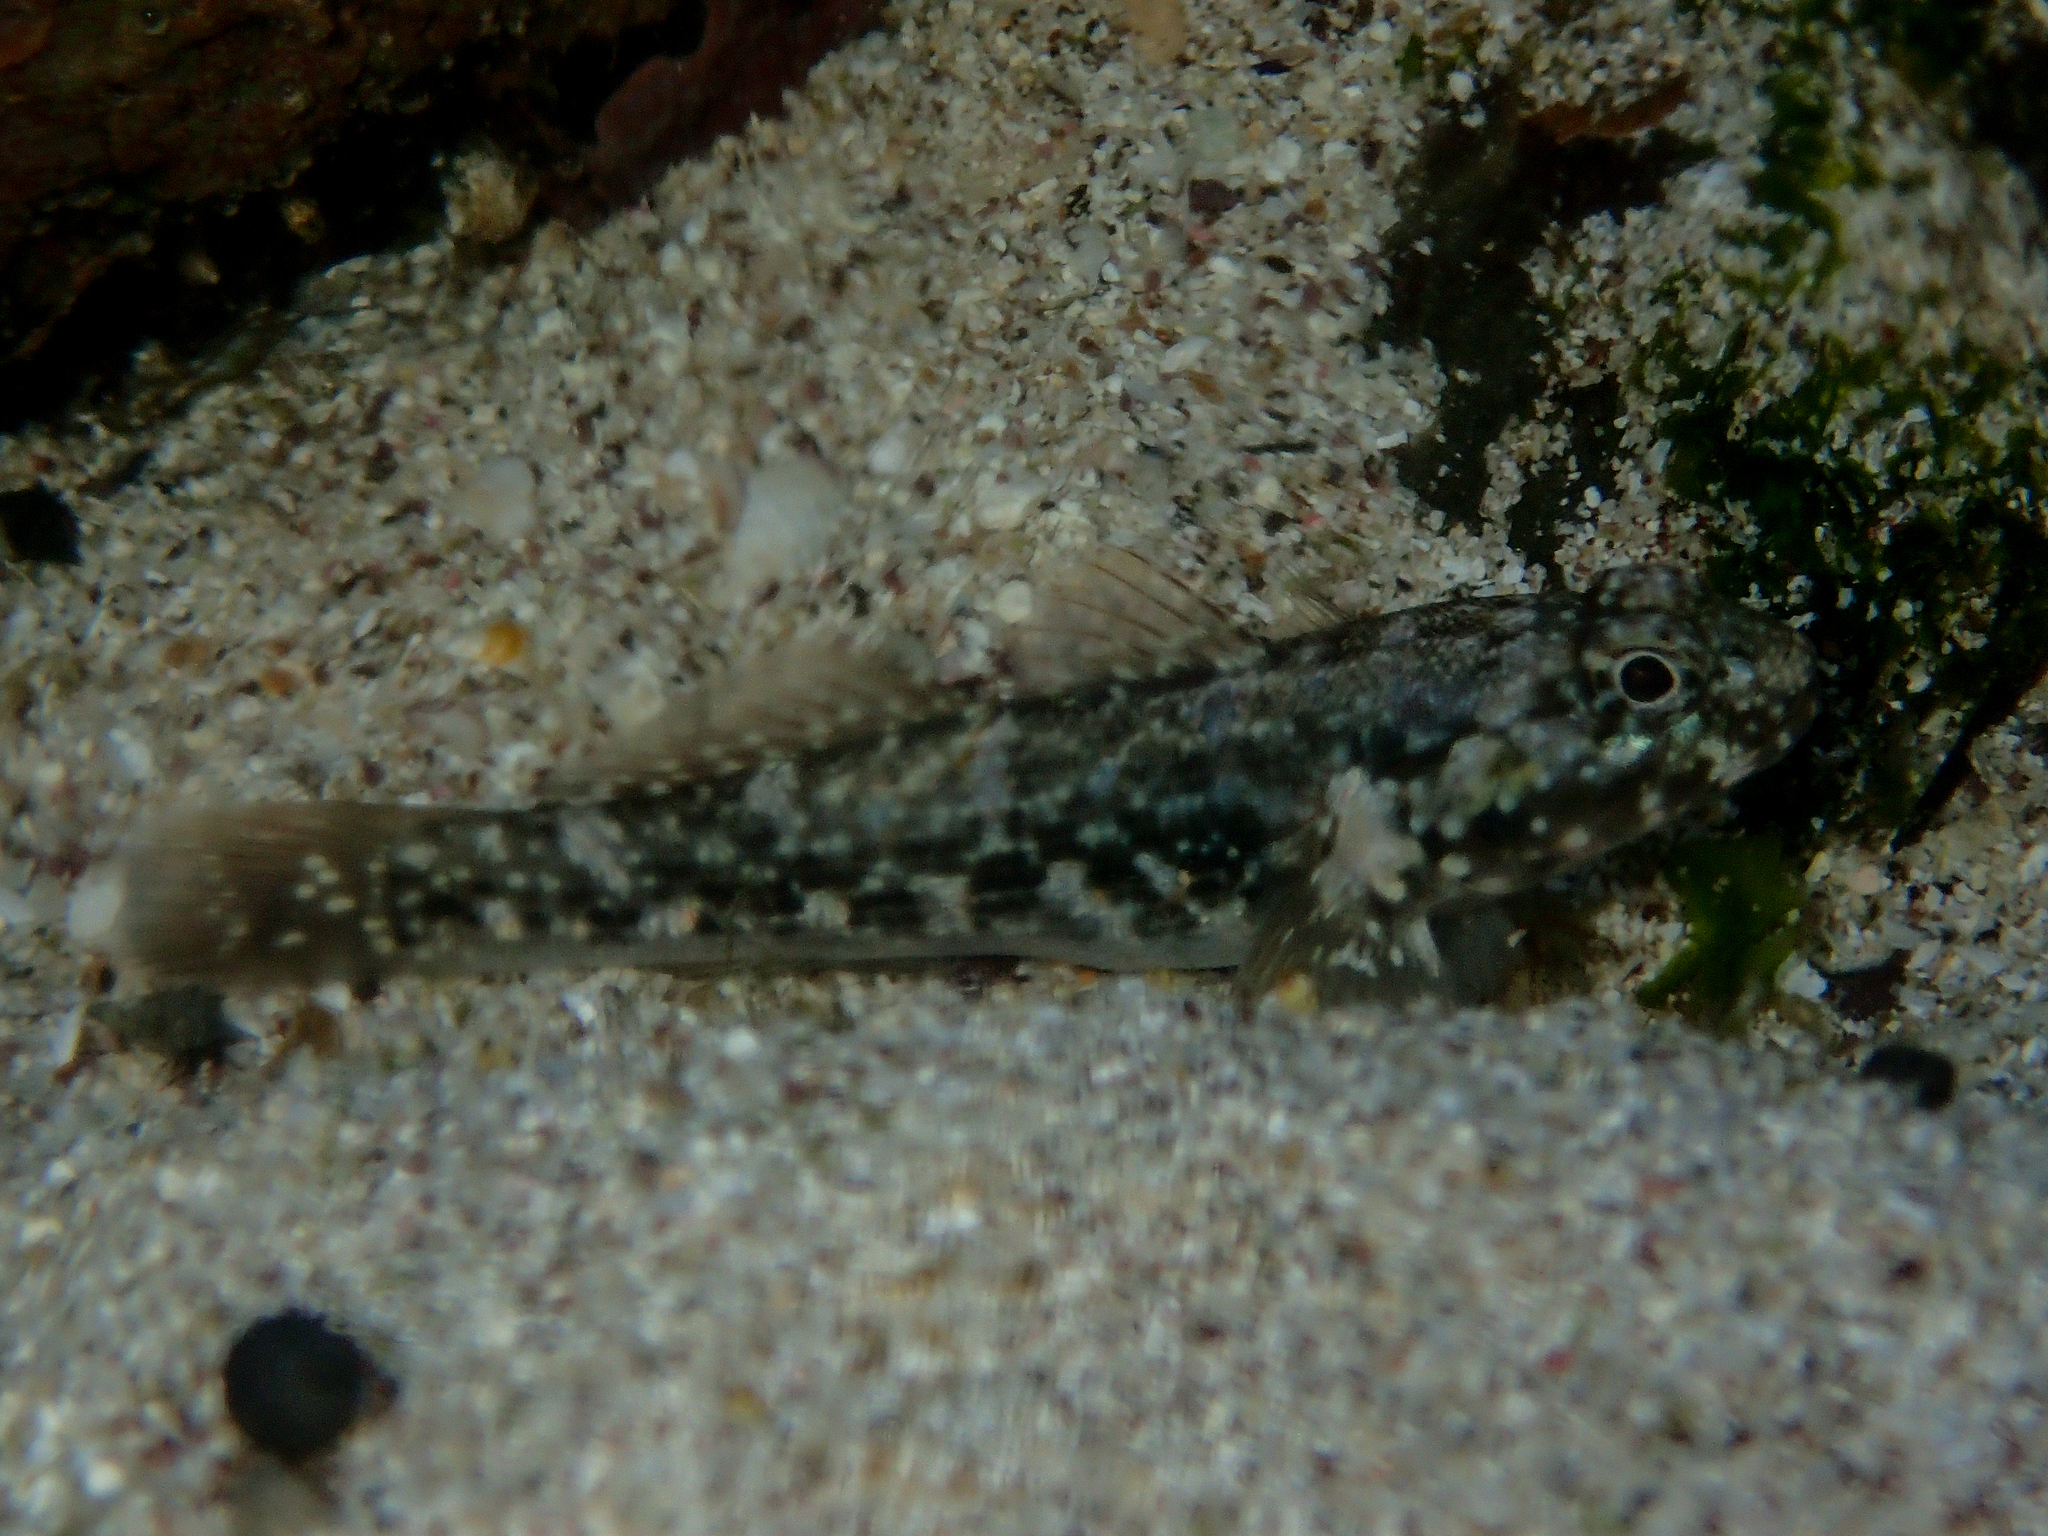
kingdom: Animalia
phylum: Chordata
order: Perciformes
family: Gobiidae
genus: Bathygobius
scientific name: Bathygobius lineatus
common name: Southern frillfin
